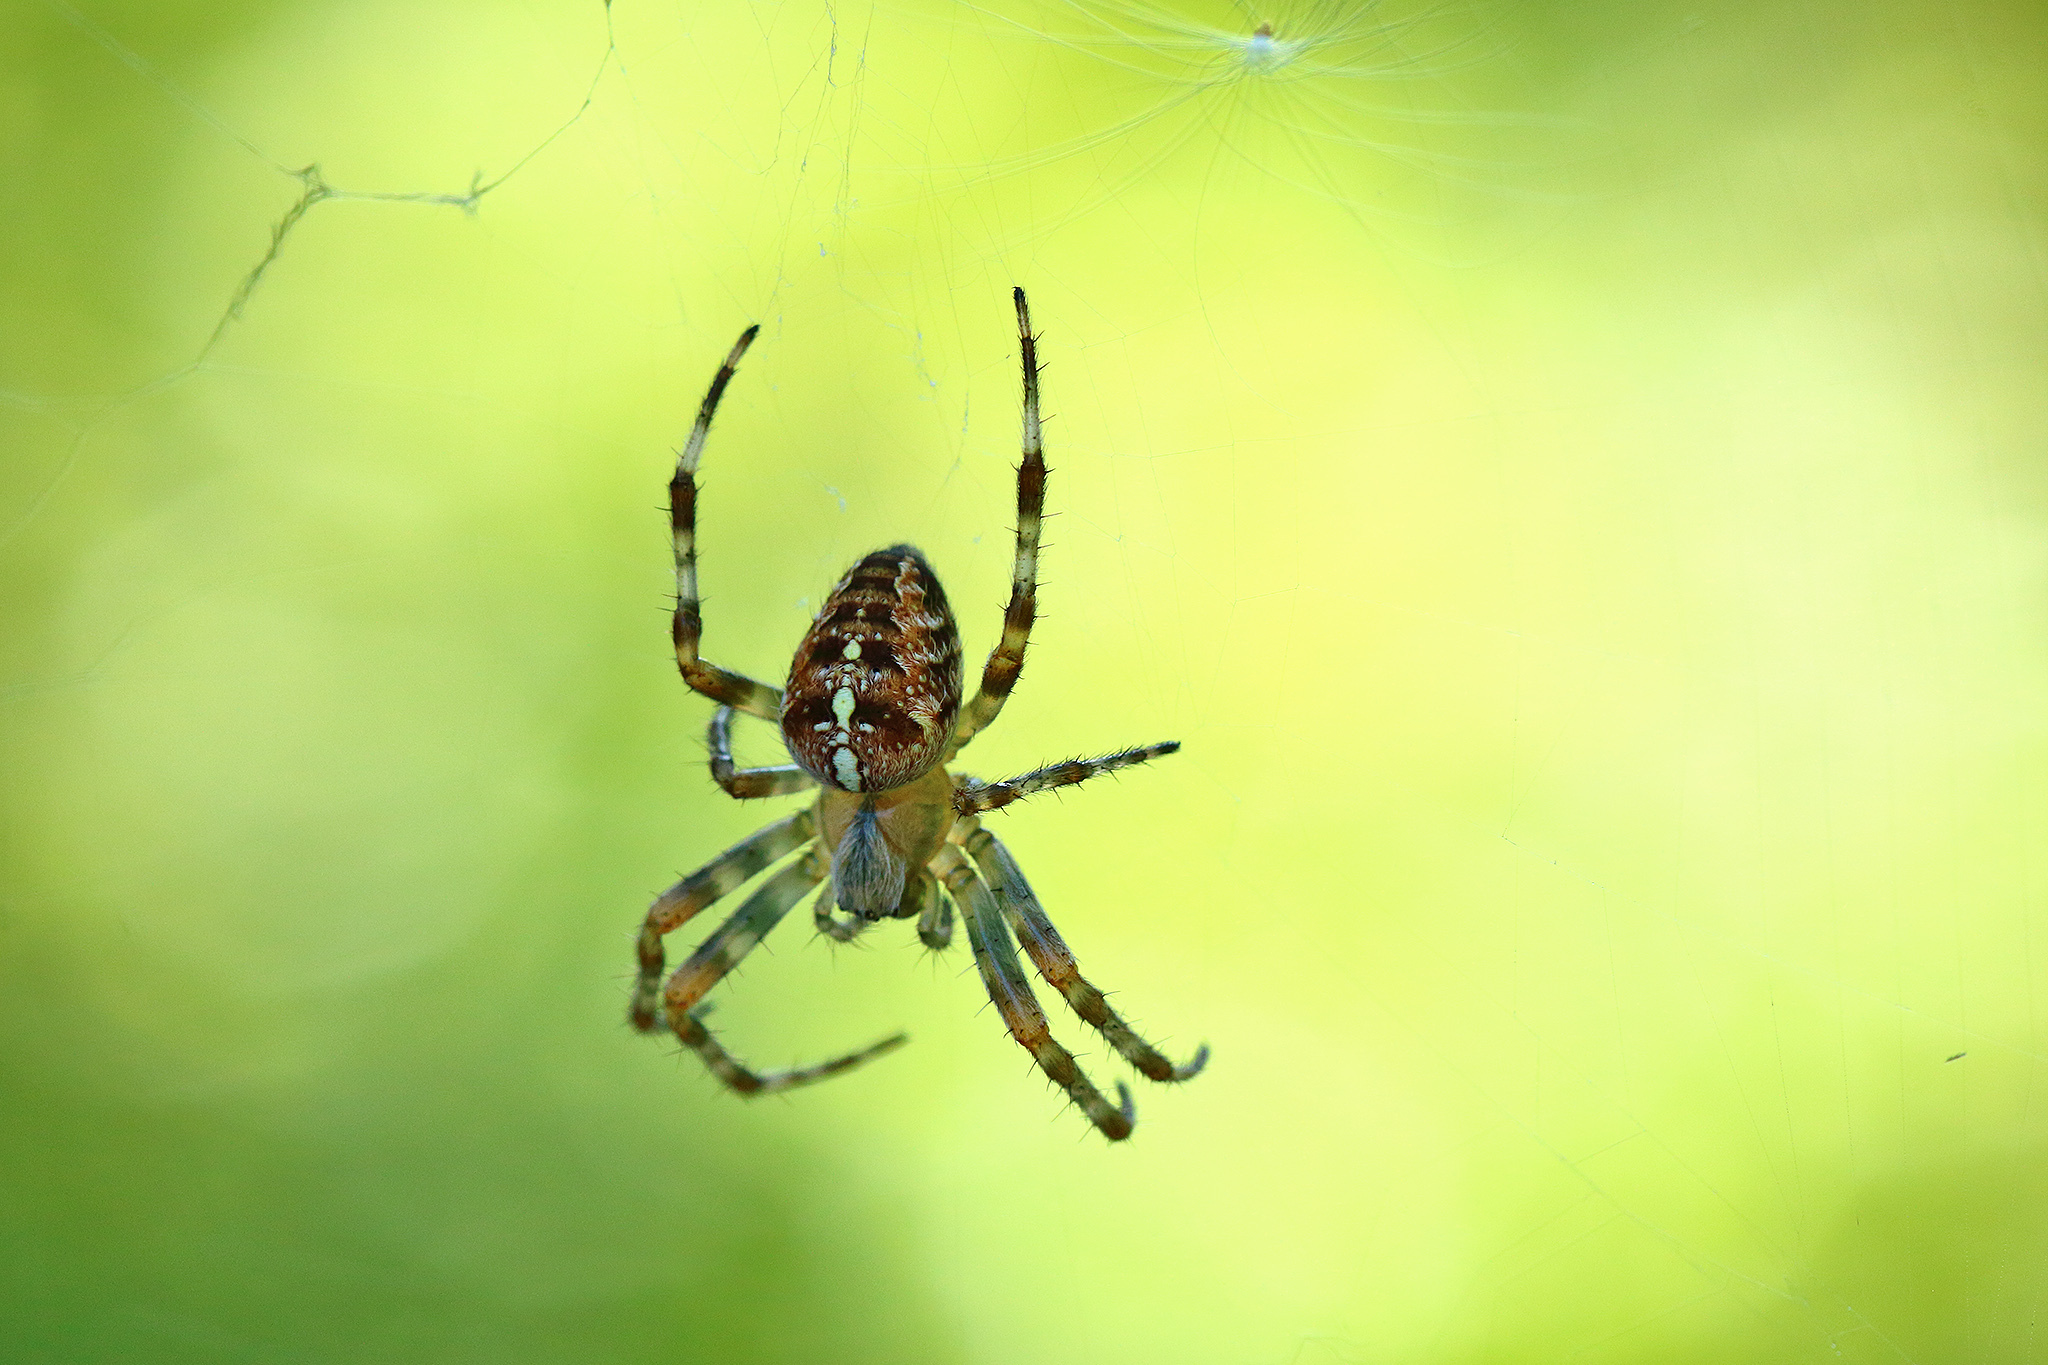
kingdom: Animalia
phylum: Arthropoda
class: Arachnida
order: Araneae
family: Araneidae
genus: Araneus
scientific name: Araneus diadematus
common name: Cross orbweaver
